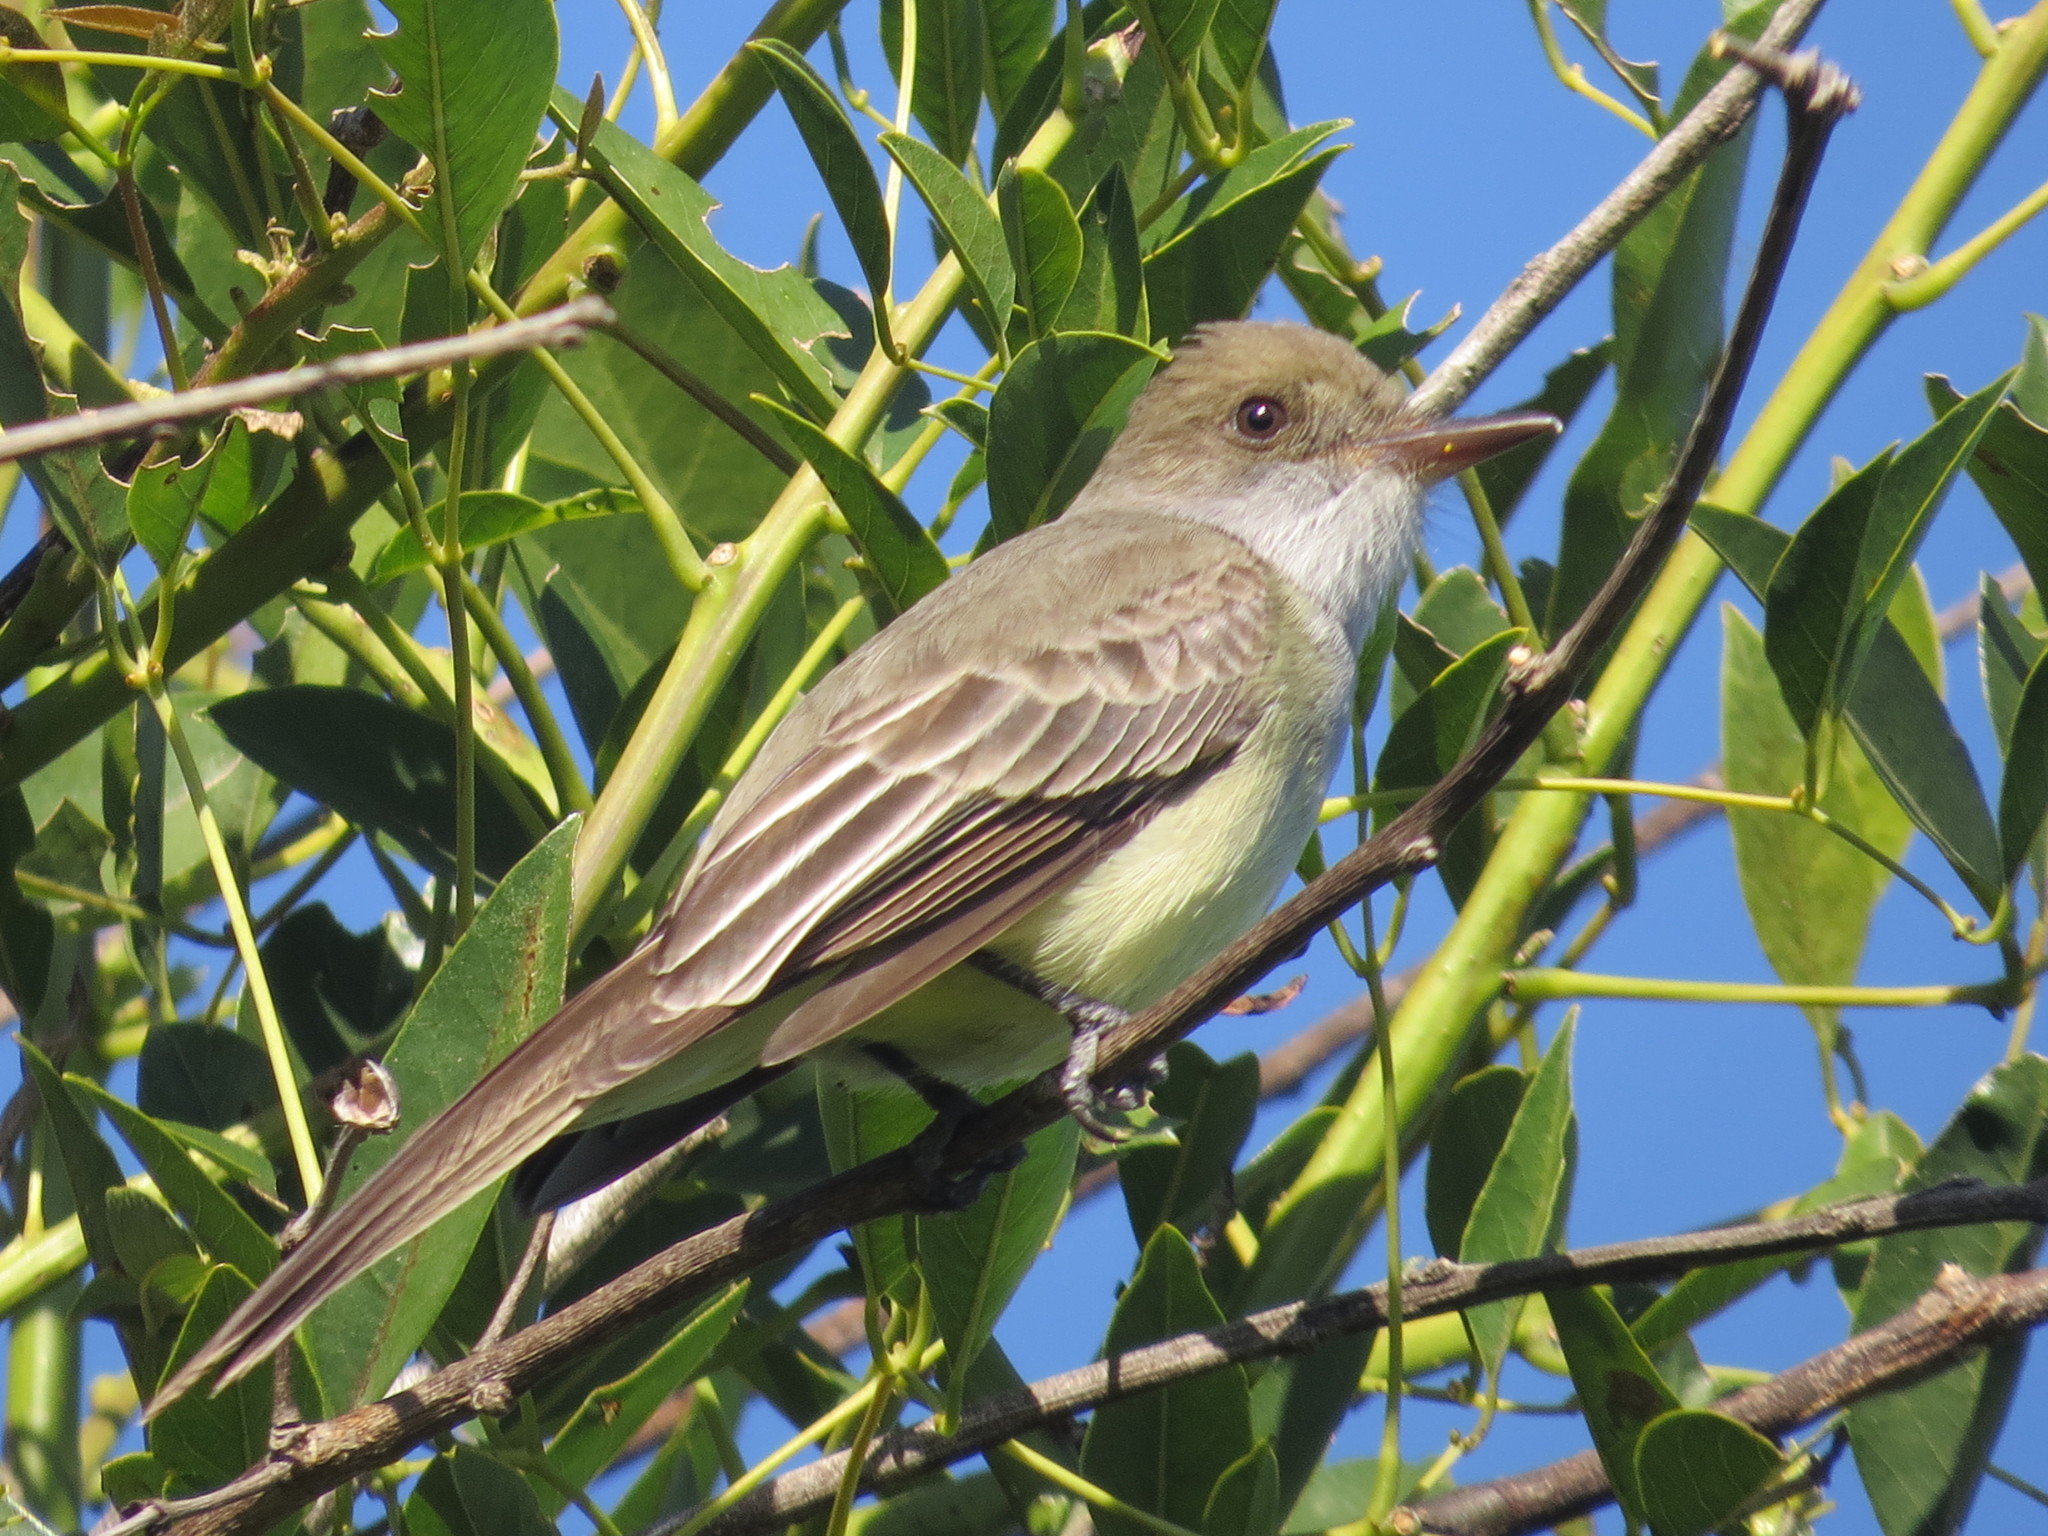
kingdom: Animalia
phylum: Chordata
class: Aves
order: Passeriformes
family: Tyrannidae
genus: Myiarchus
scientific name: Myiarchus swainsoni
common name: Swainson's flycatcher
